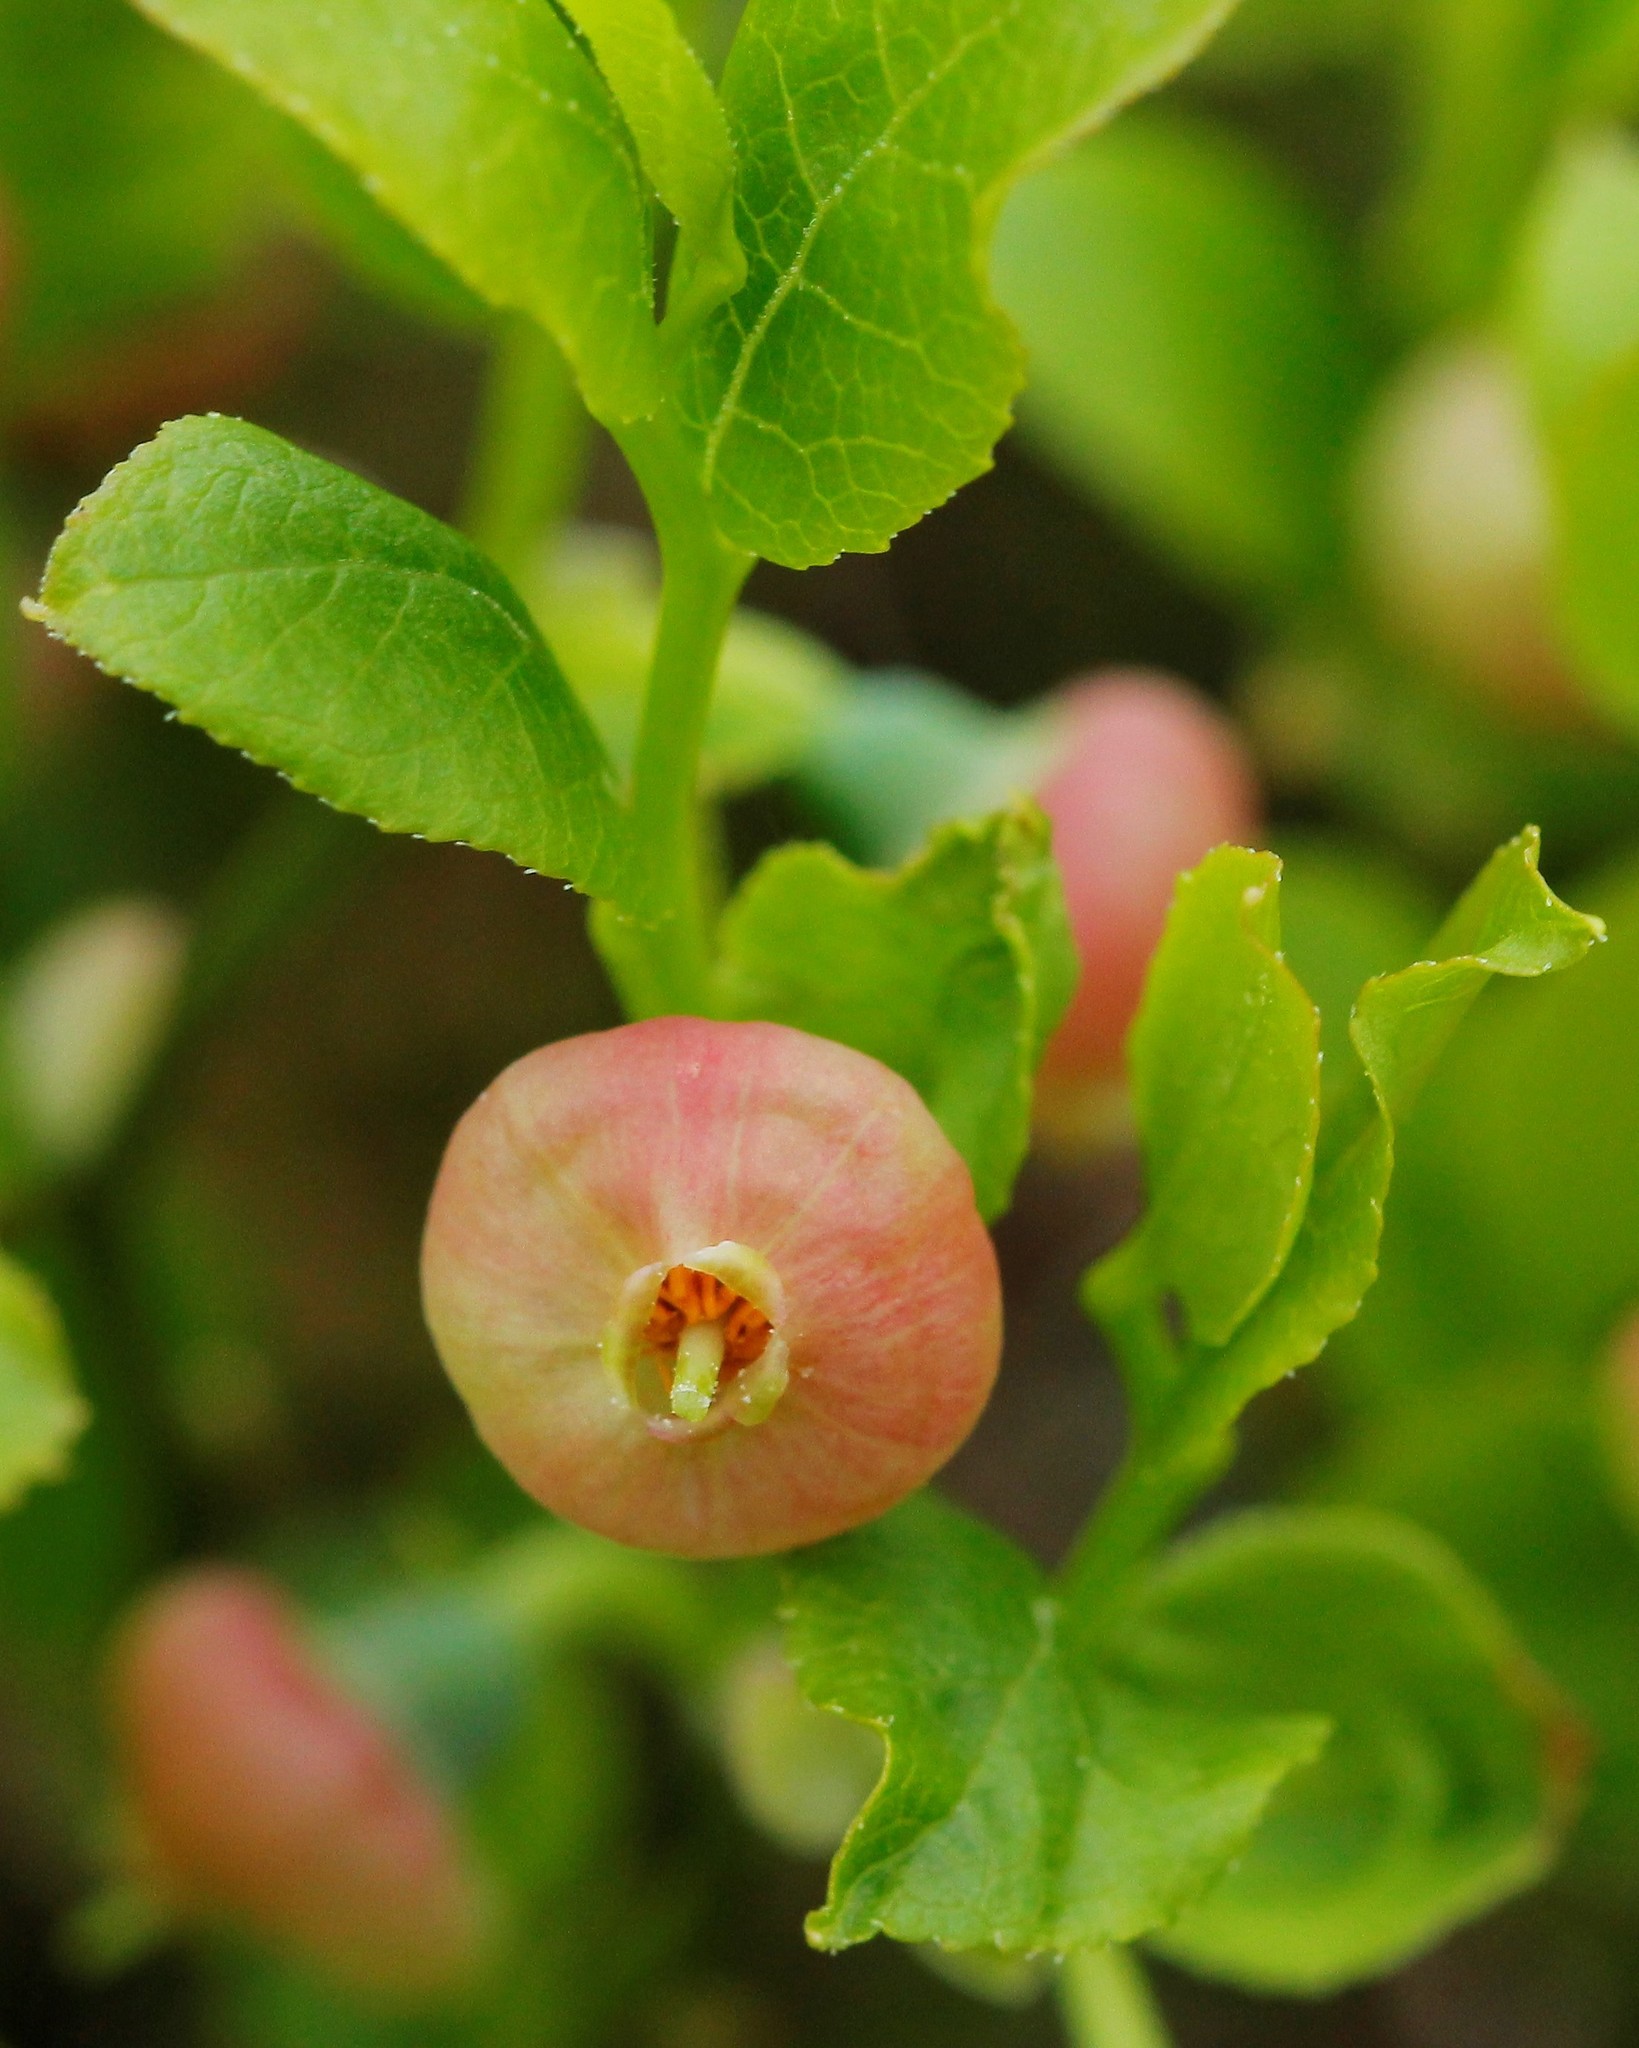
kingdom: Plantae
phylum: Tracheophyta
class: Magnoliopsida
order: Ericales
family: Ericaceae
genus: Vaccinium
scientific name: Vaccinium myrtillus
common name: Bilberry
